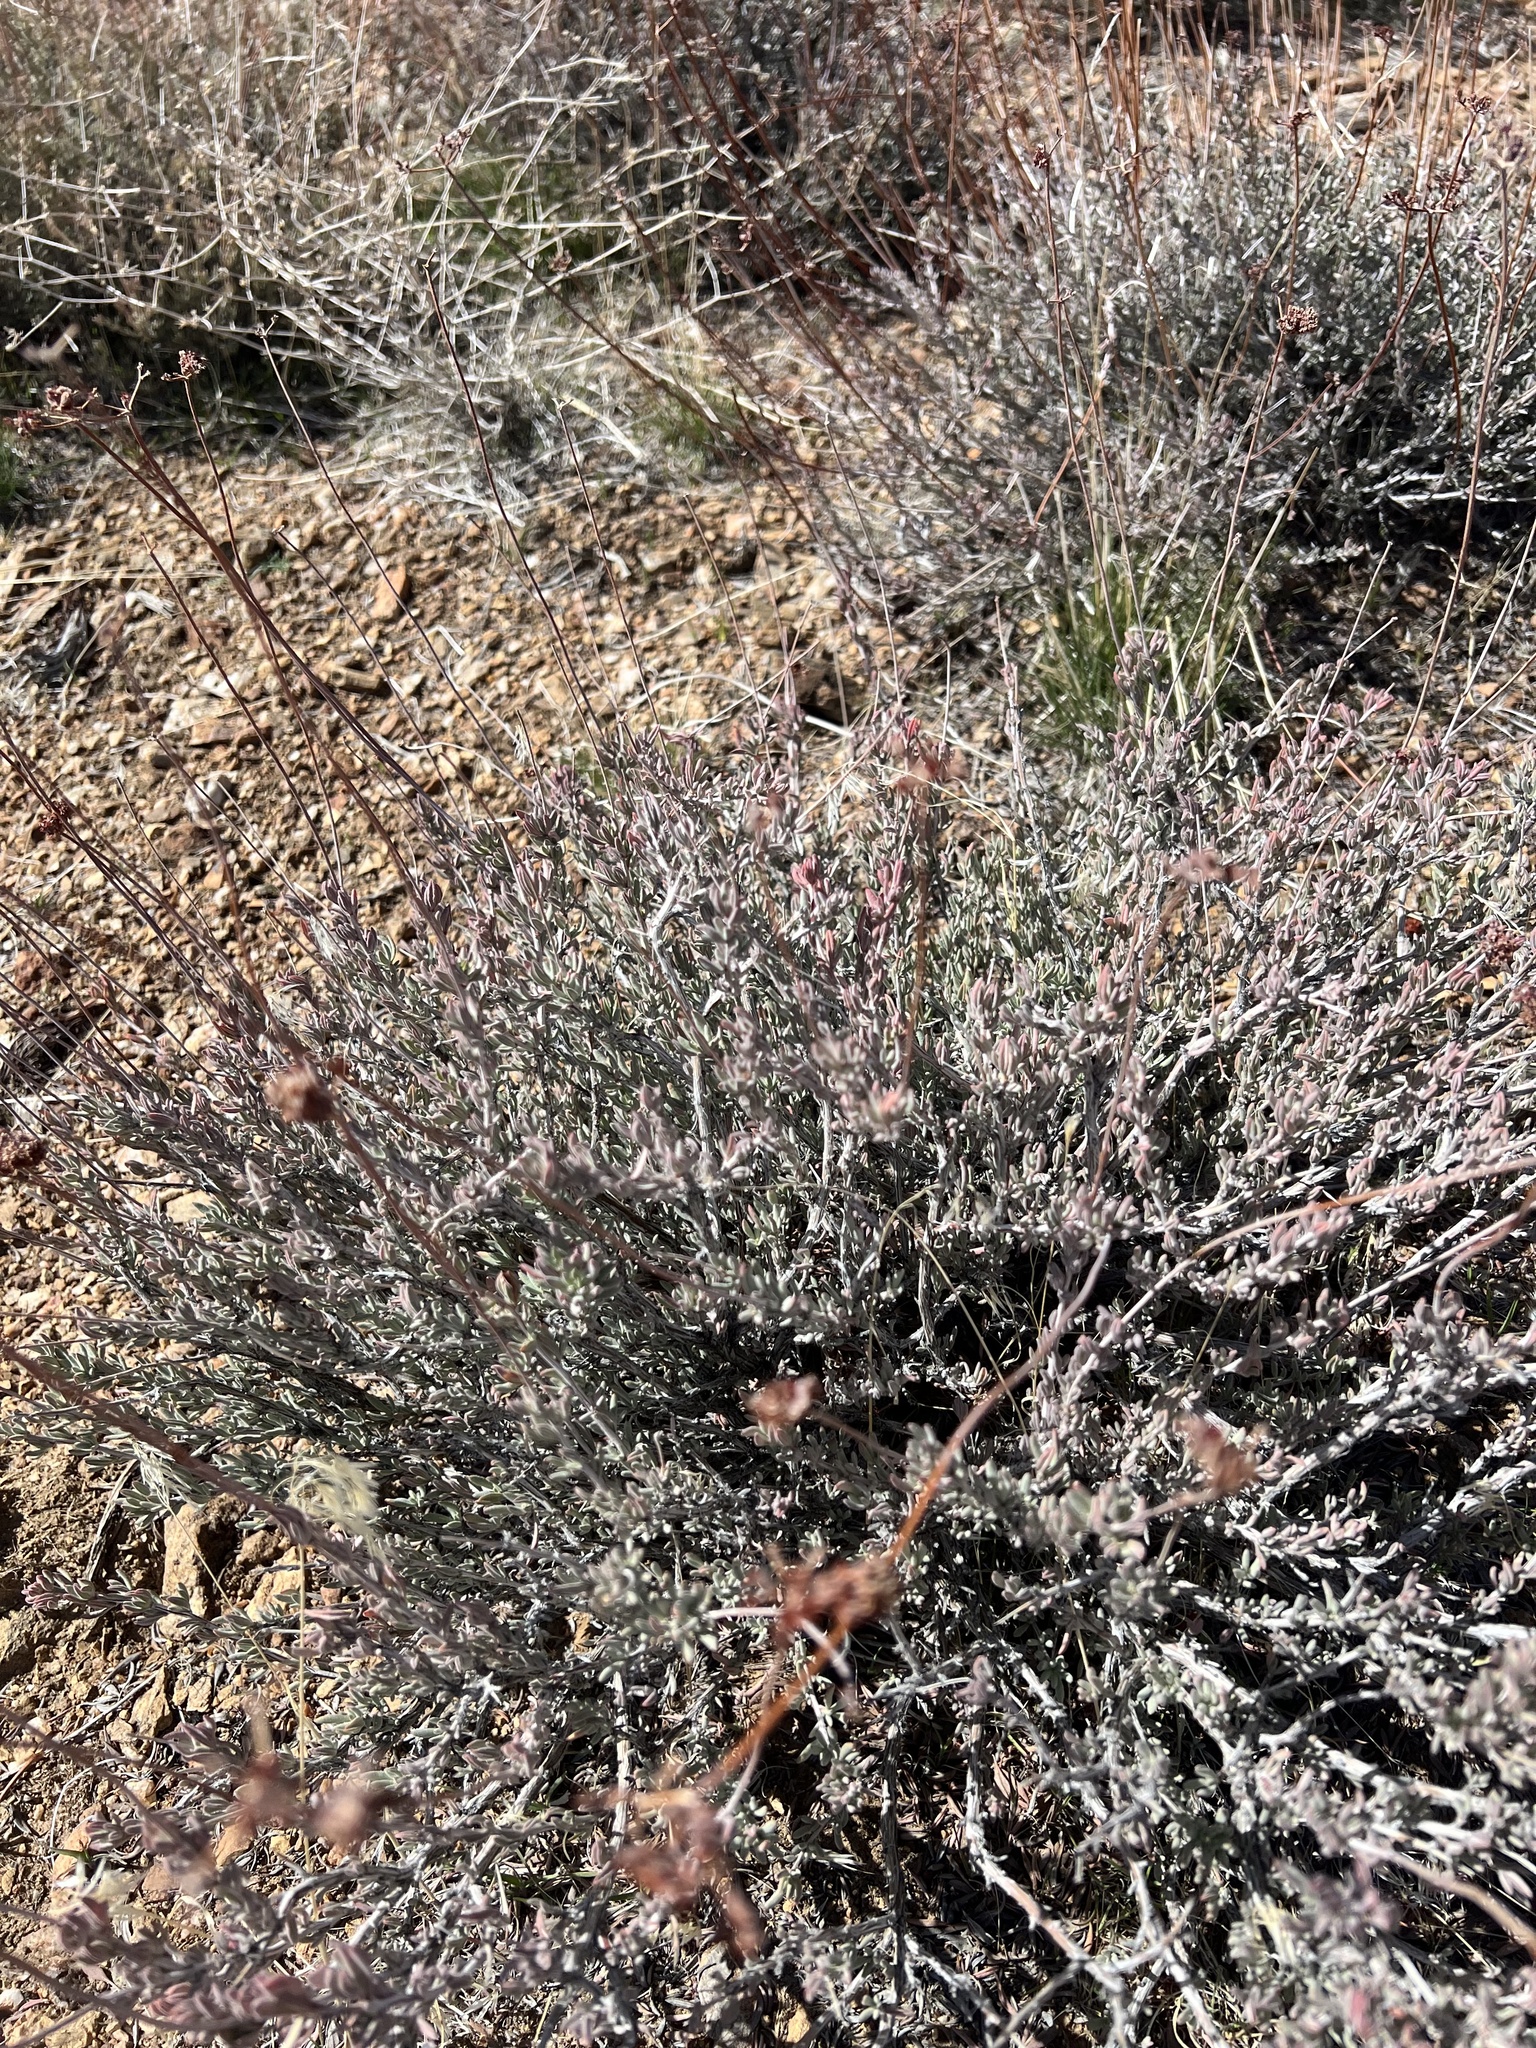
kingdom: Plantae
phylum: Tracheophyta
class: Magnoliopsida
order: Caryophyllales
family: Polygonaceae
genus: Eriogonum
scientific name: Eriogonum fasciculatum
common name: California wild buckwheat
